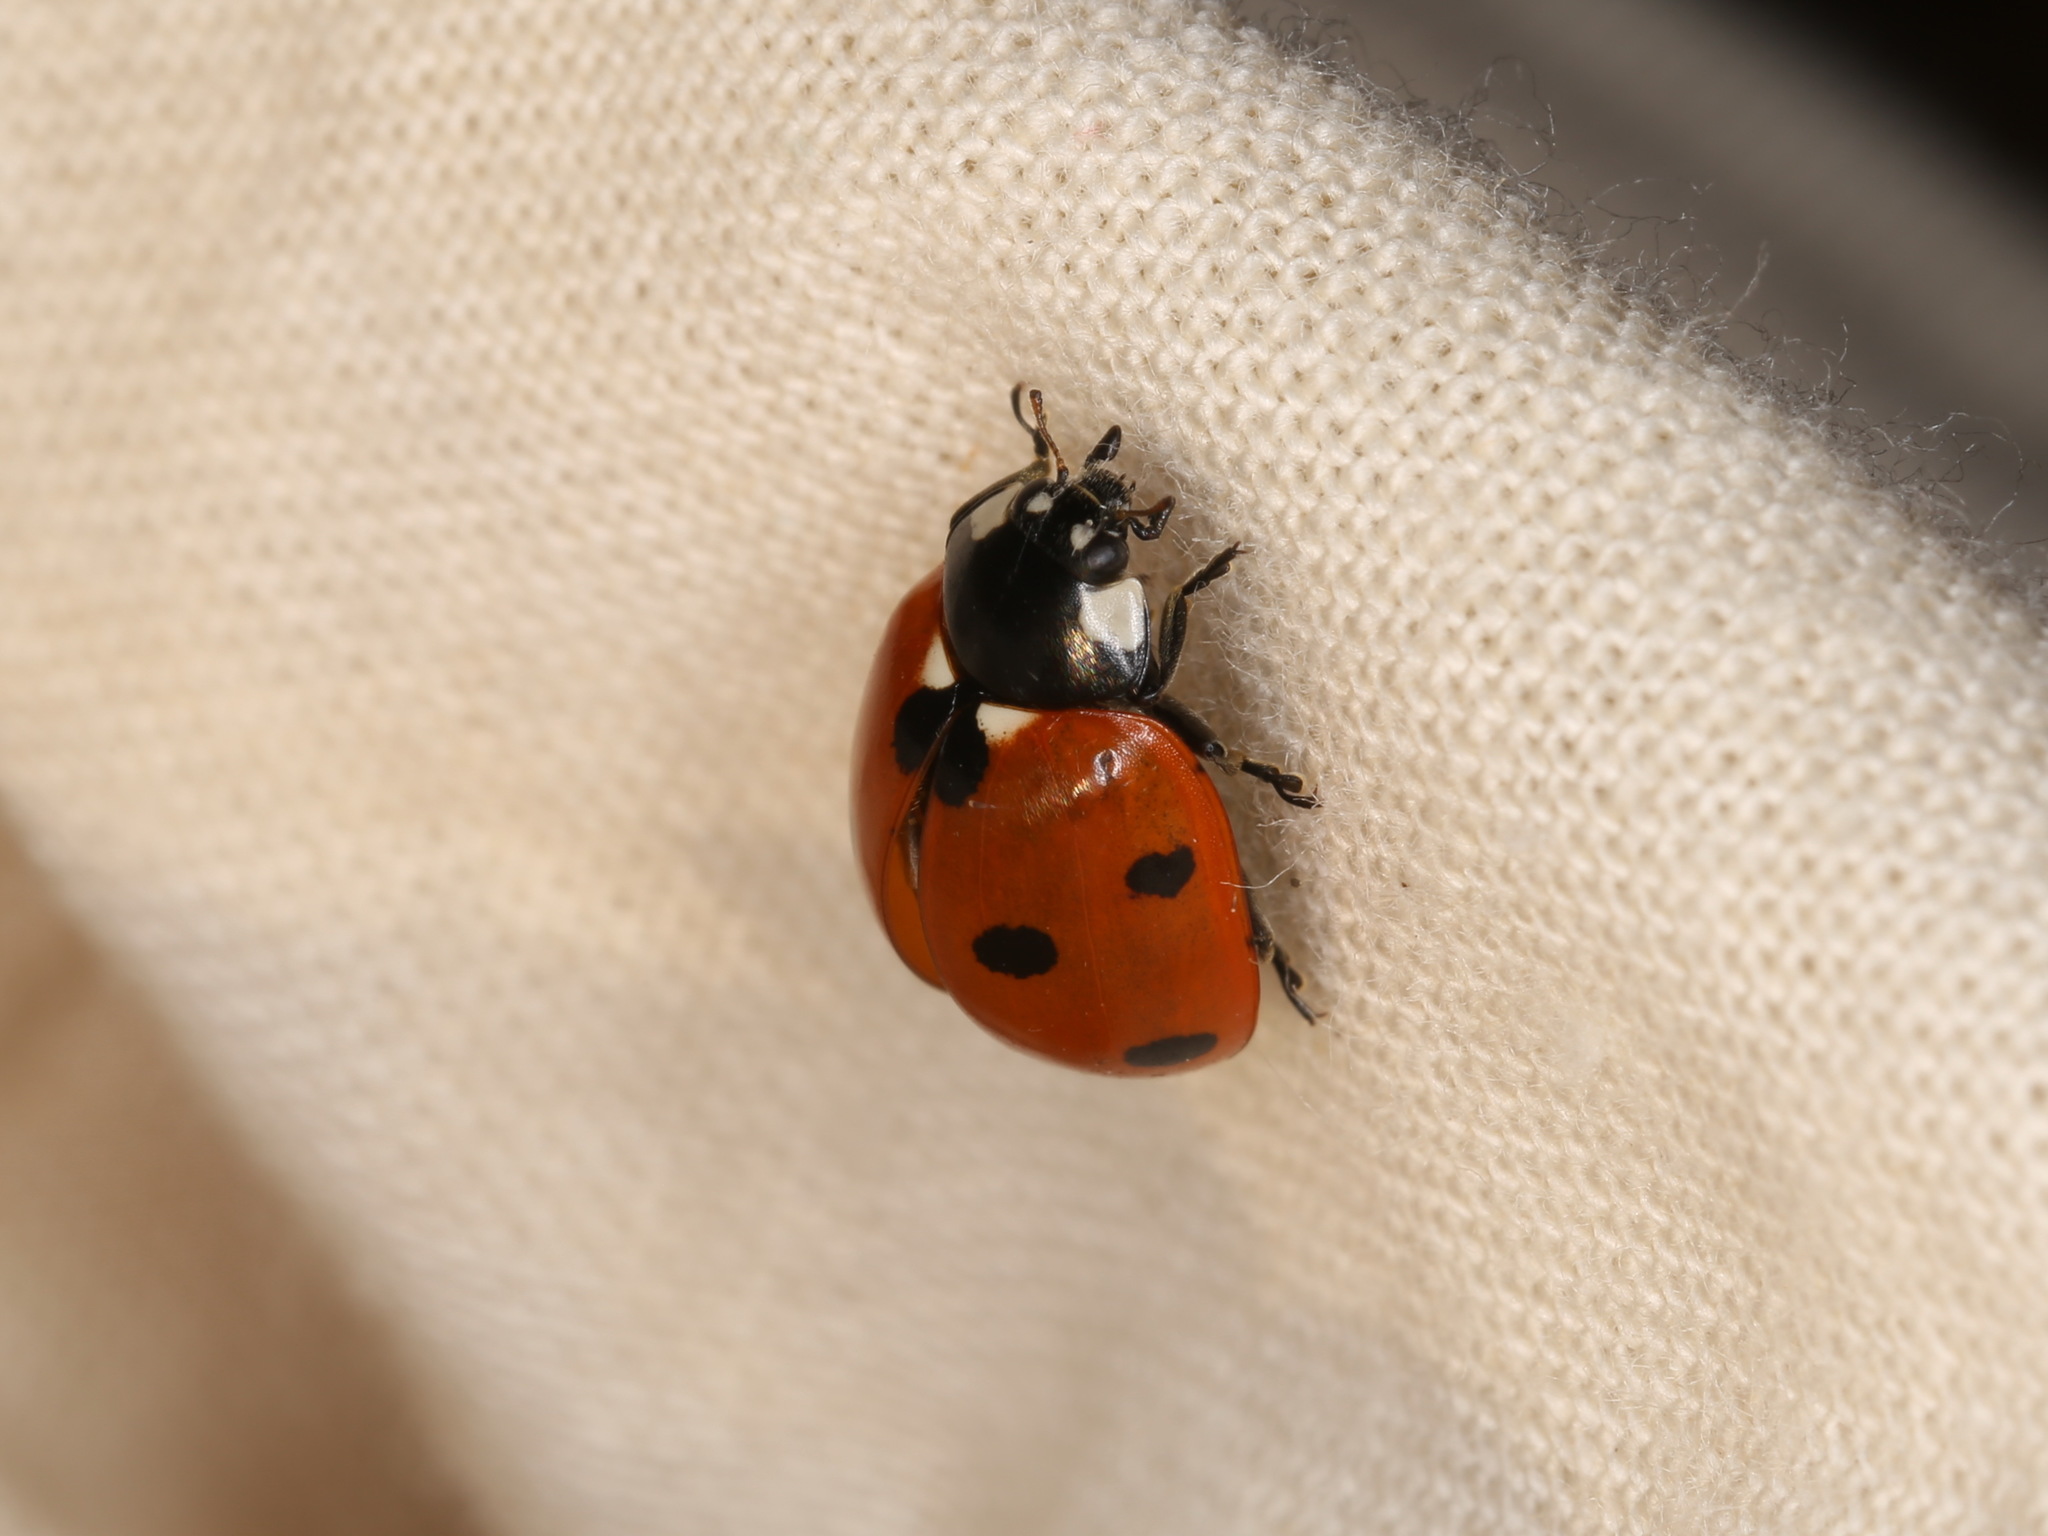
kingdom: Animalia
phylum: Arthropoda
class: Insecta
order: Coleoptera
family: Coccinellidae
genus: Coccinella
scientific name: Coccinella septempunctata
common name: Sevenspotted lady beetle
